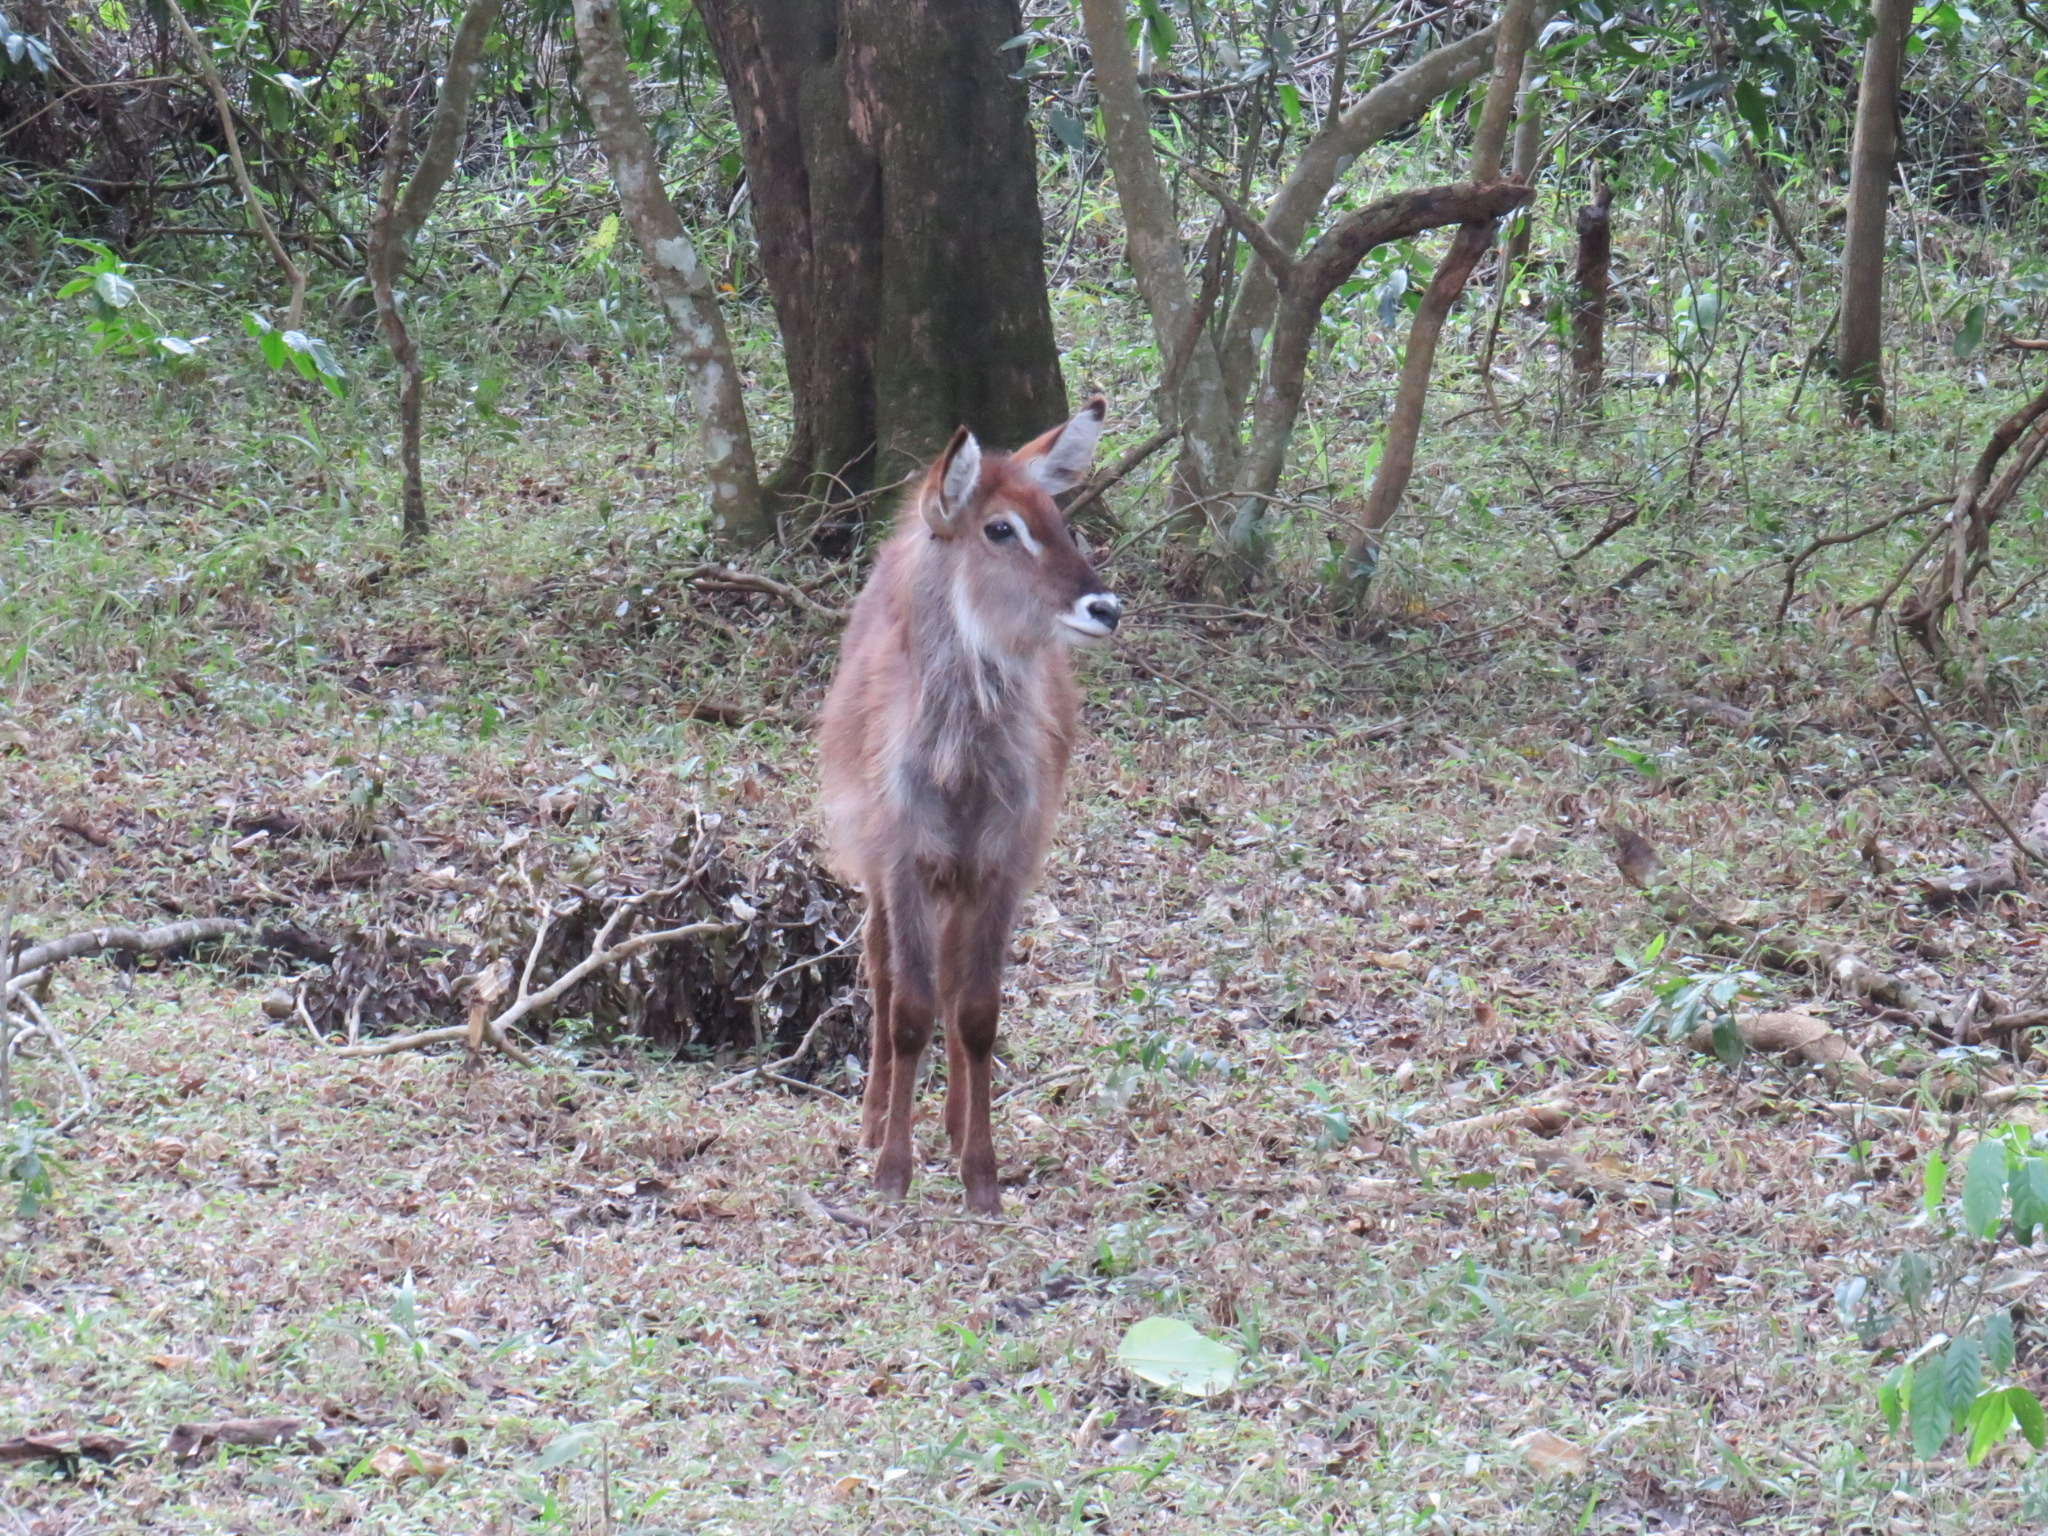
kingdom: Animalia
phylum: Chordata
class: Mammalia
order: Artiodactyla
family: Bovidae
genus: Kobus
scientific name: Kobus ellipsiprymnus
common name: Waterbuck
